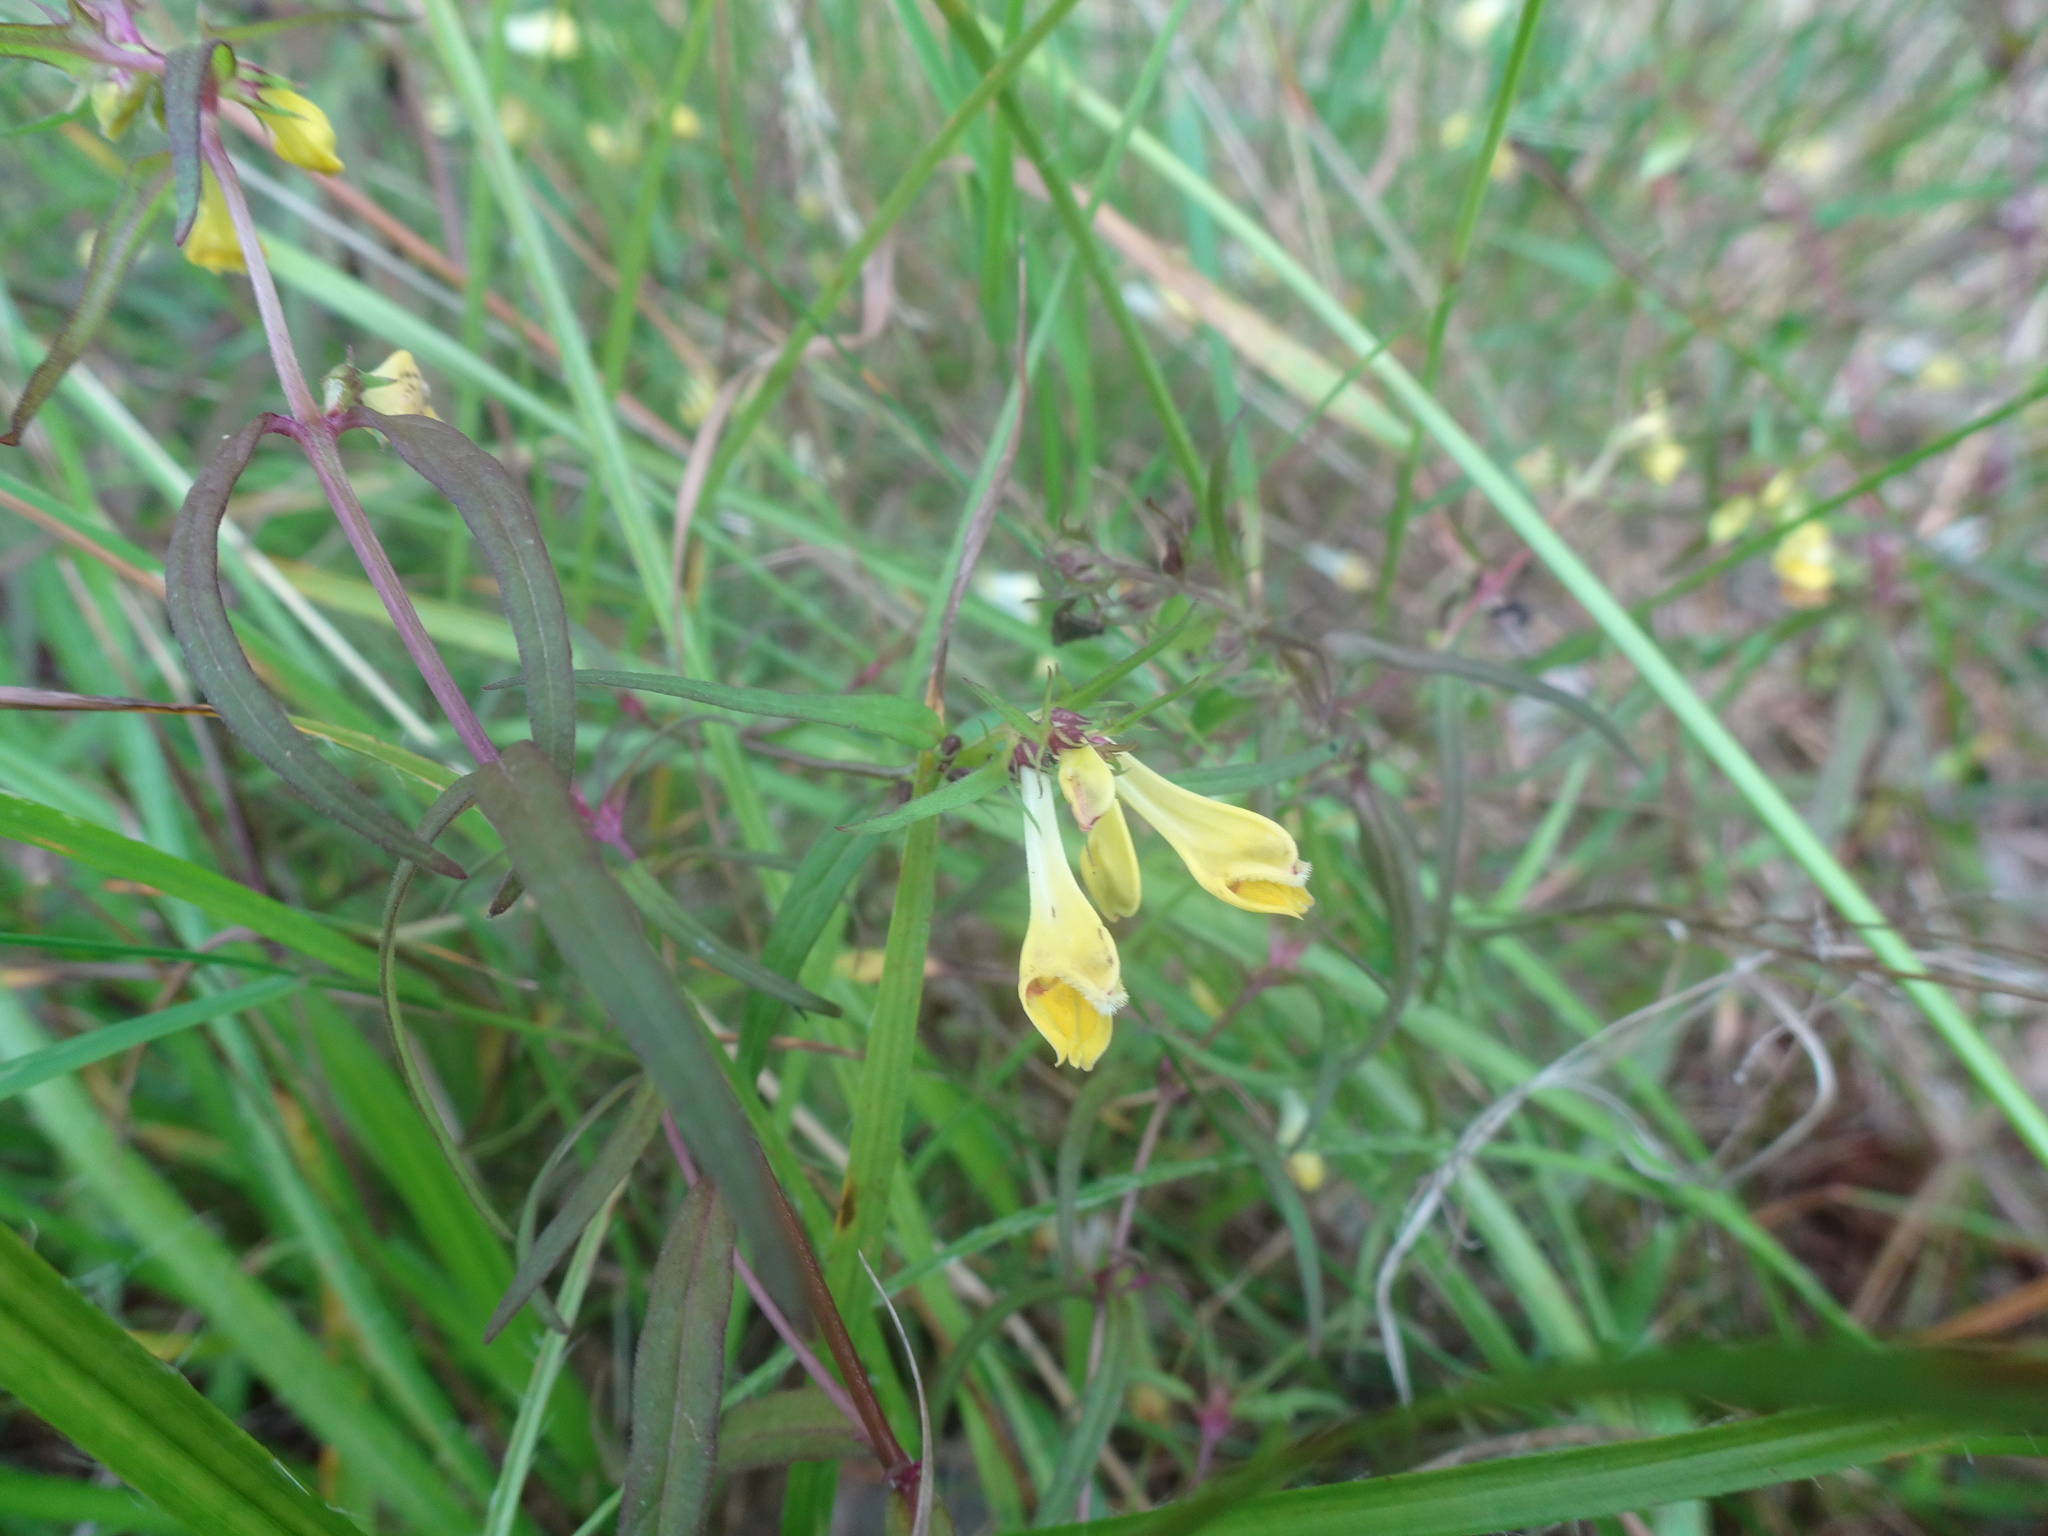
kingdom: Plantae
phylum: Tracheophyta
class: Magnoliopsida
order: Lamiales
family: Orobanchaceae
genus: Melampyrum
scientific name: Melampyrum pratense
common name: Common cow-wheat
